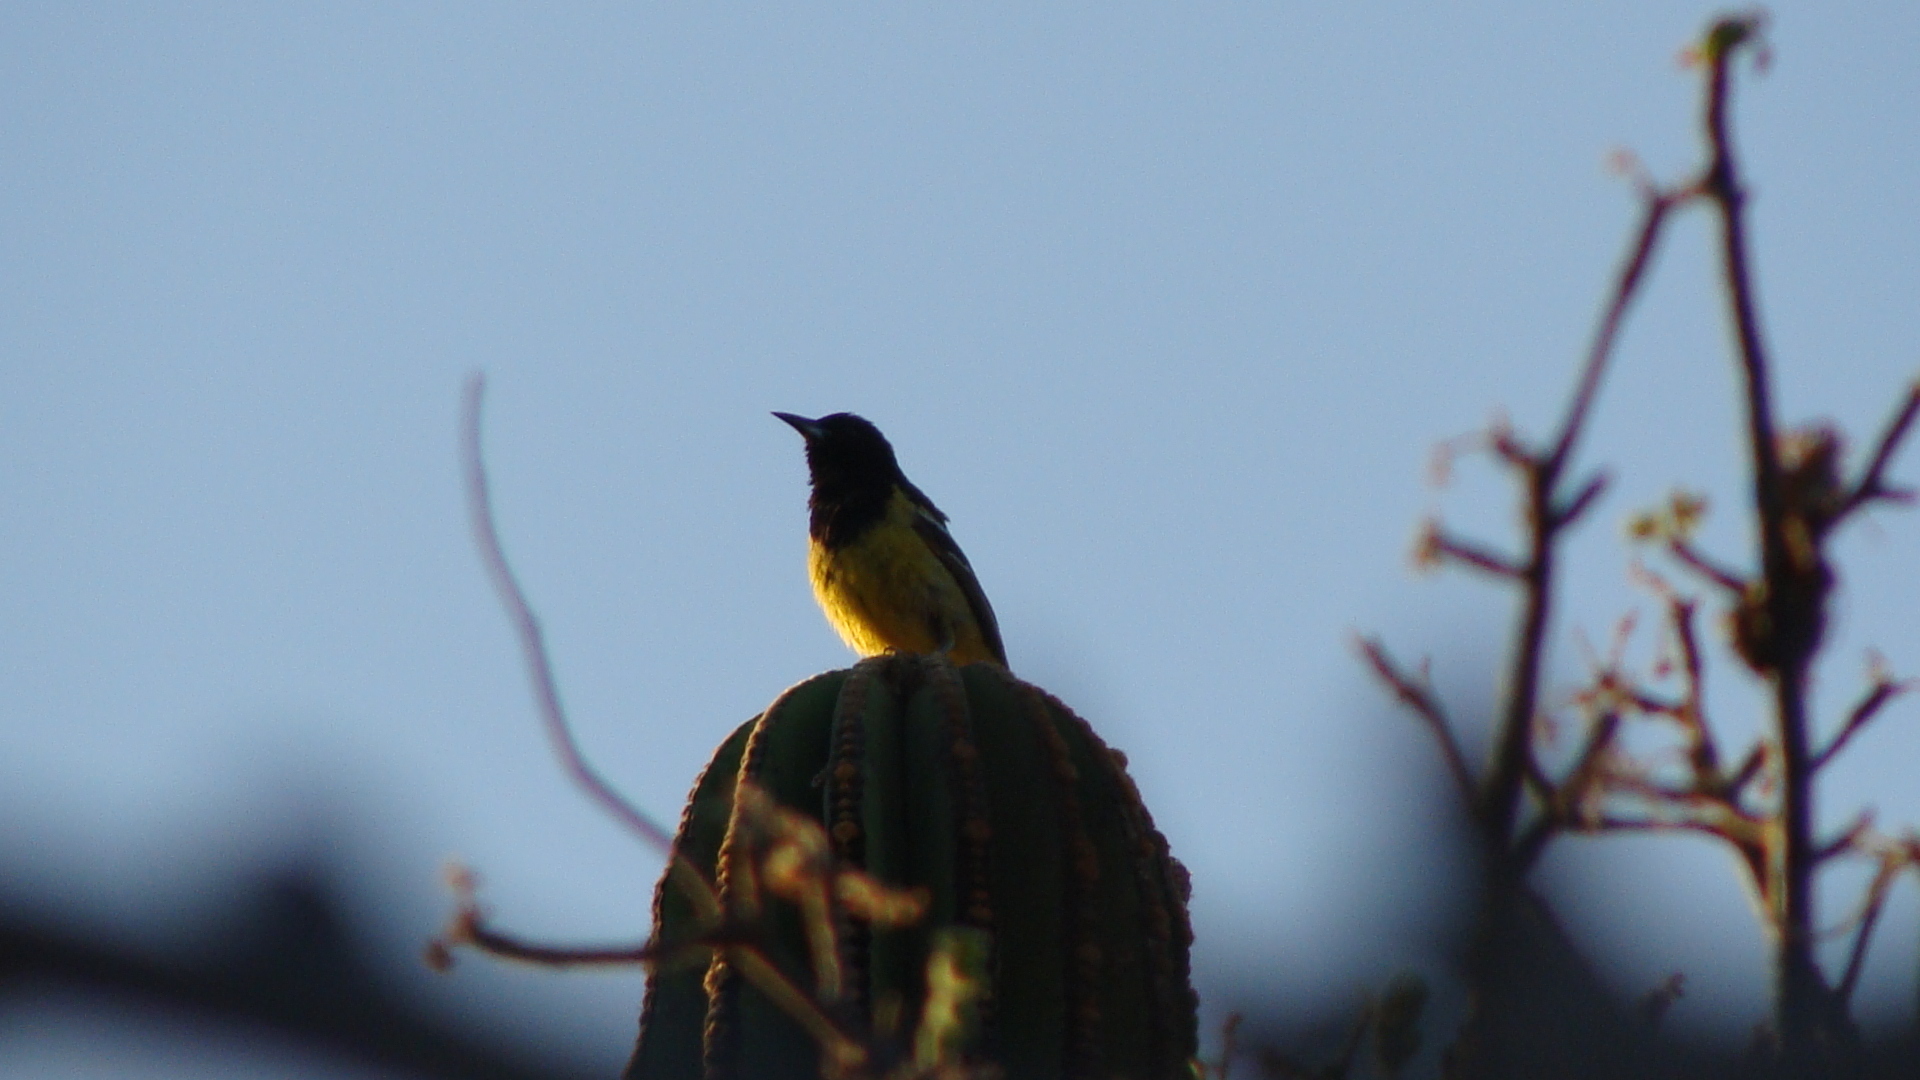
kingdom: Animalia
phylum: Chordata
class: Aves
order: Passeriformes
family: Icteridae
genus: Icterus
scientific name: Icterus parisorum
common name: Scott's oriole
